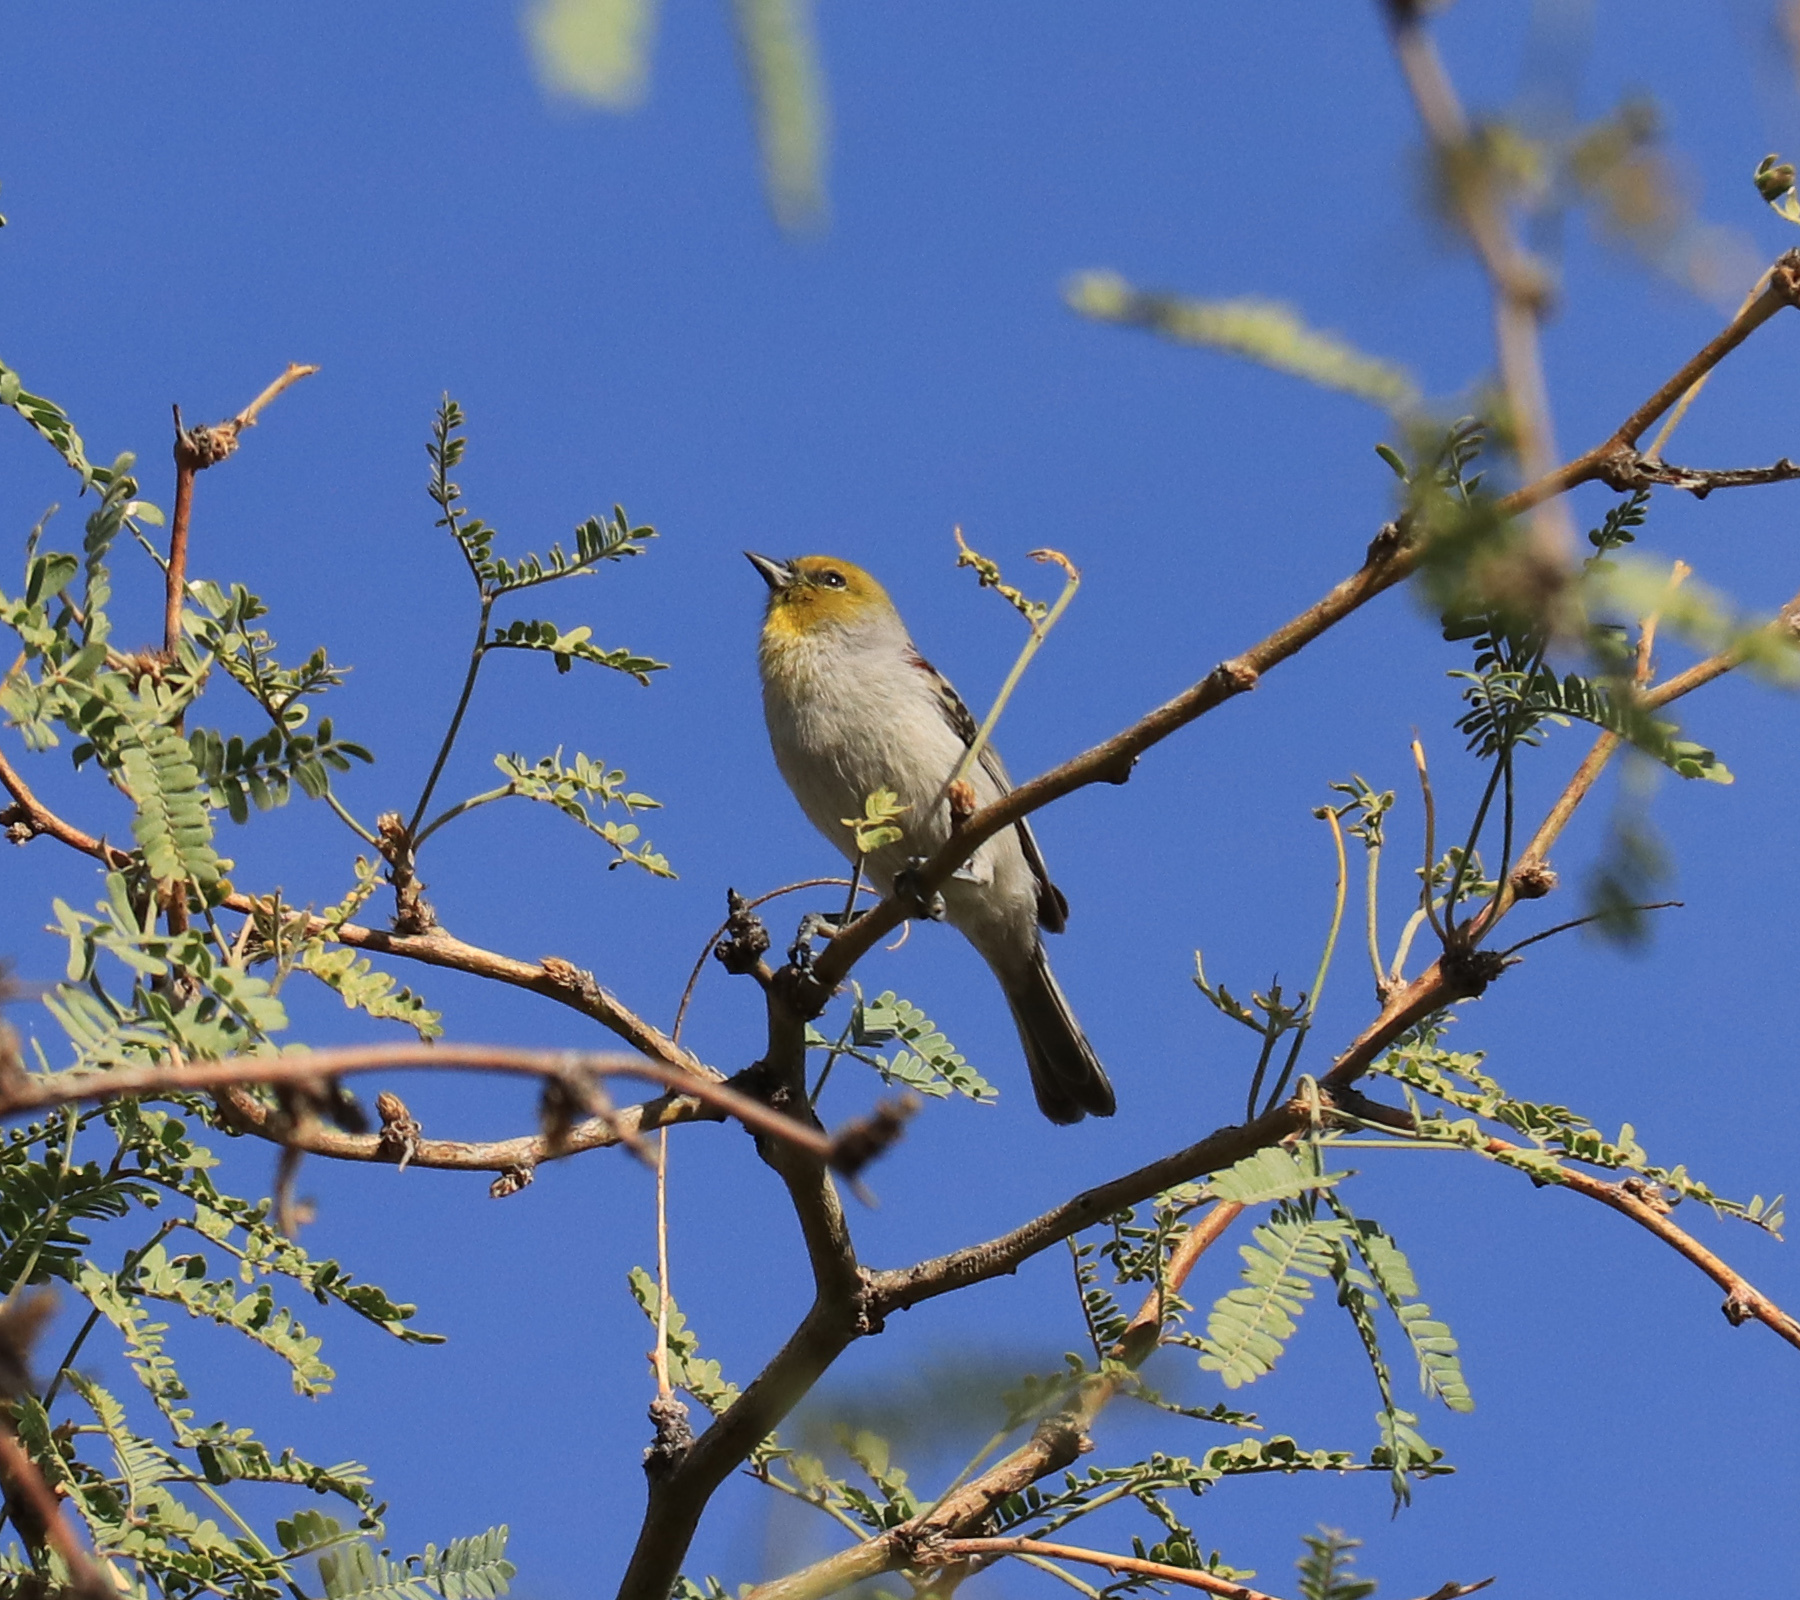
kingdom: Animalia
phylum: Chordata
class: Aves
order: Passeriformes
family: Remizidae
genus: Auriparus
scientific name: Auriparus flaviceps
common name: Verdin
